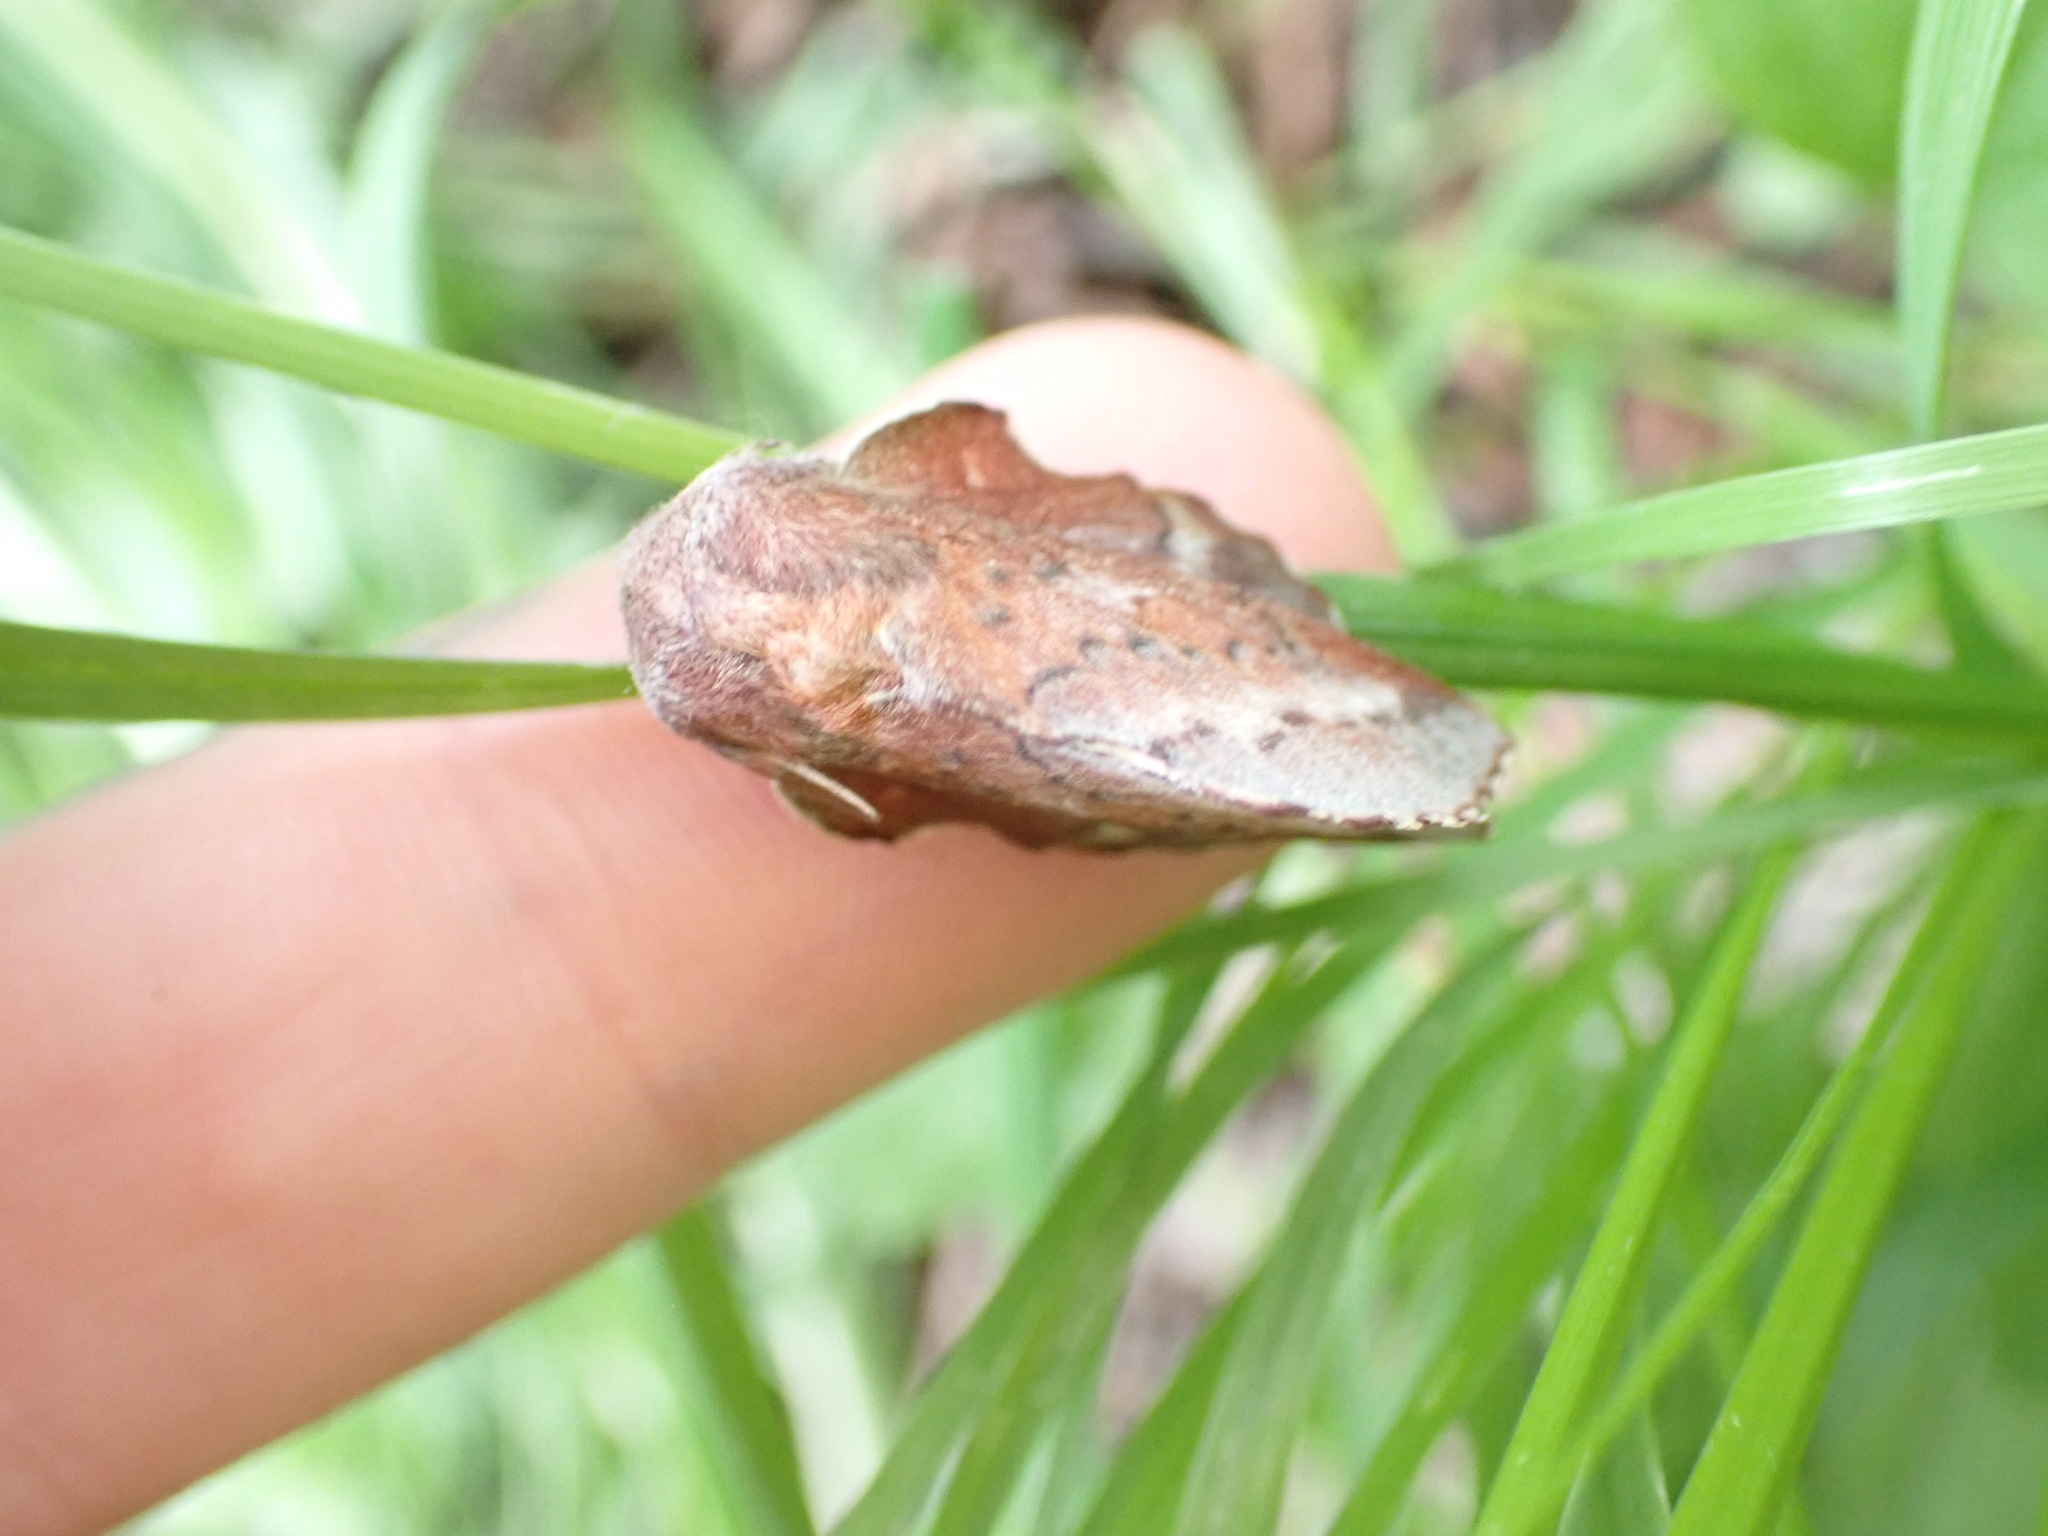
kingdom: Animalia
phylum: Arthropoda
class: Insecta
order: Lepidoptera
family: Lasiocampidae
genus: Phyllodesma
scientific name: Phyllodesma americana
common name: American lappet moth
